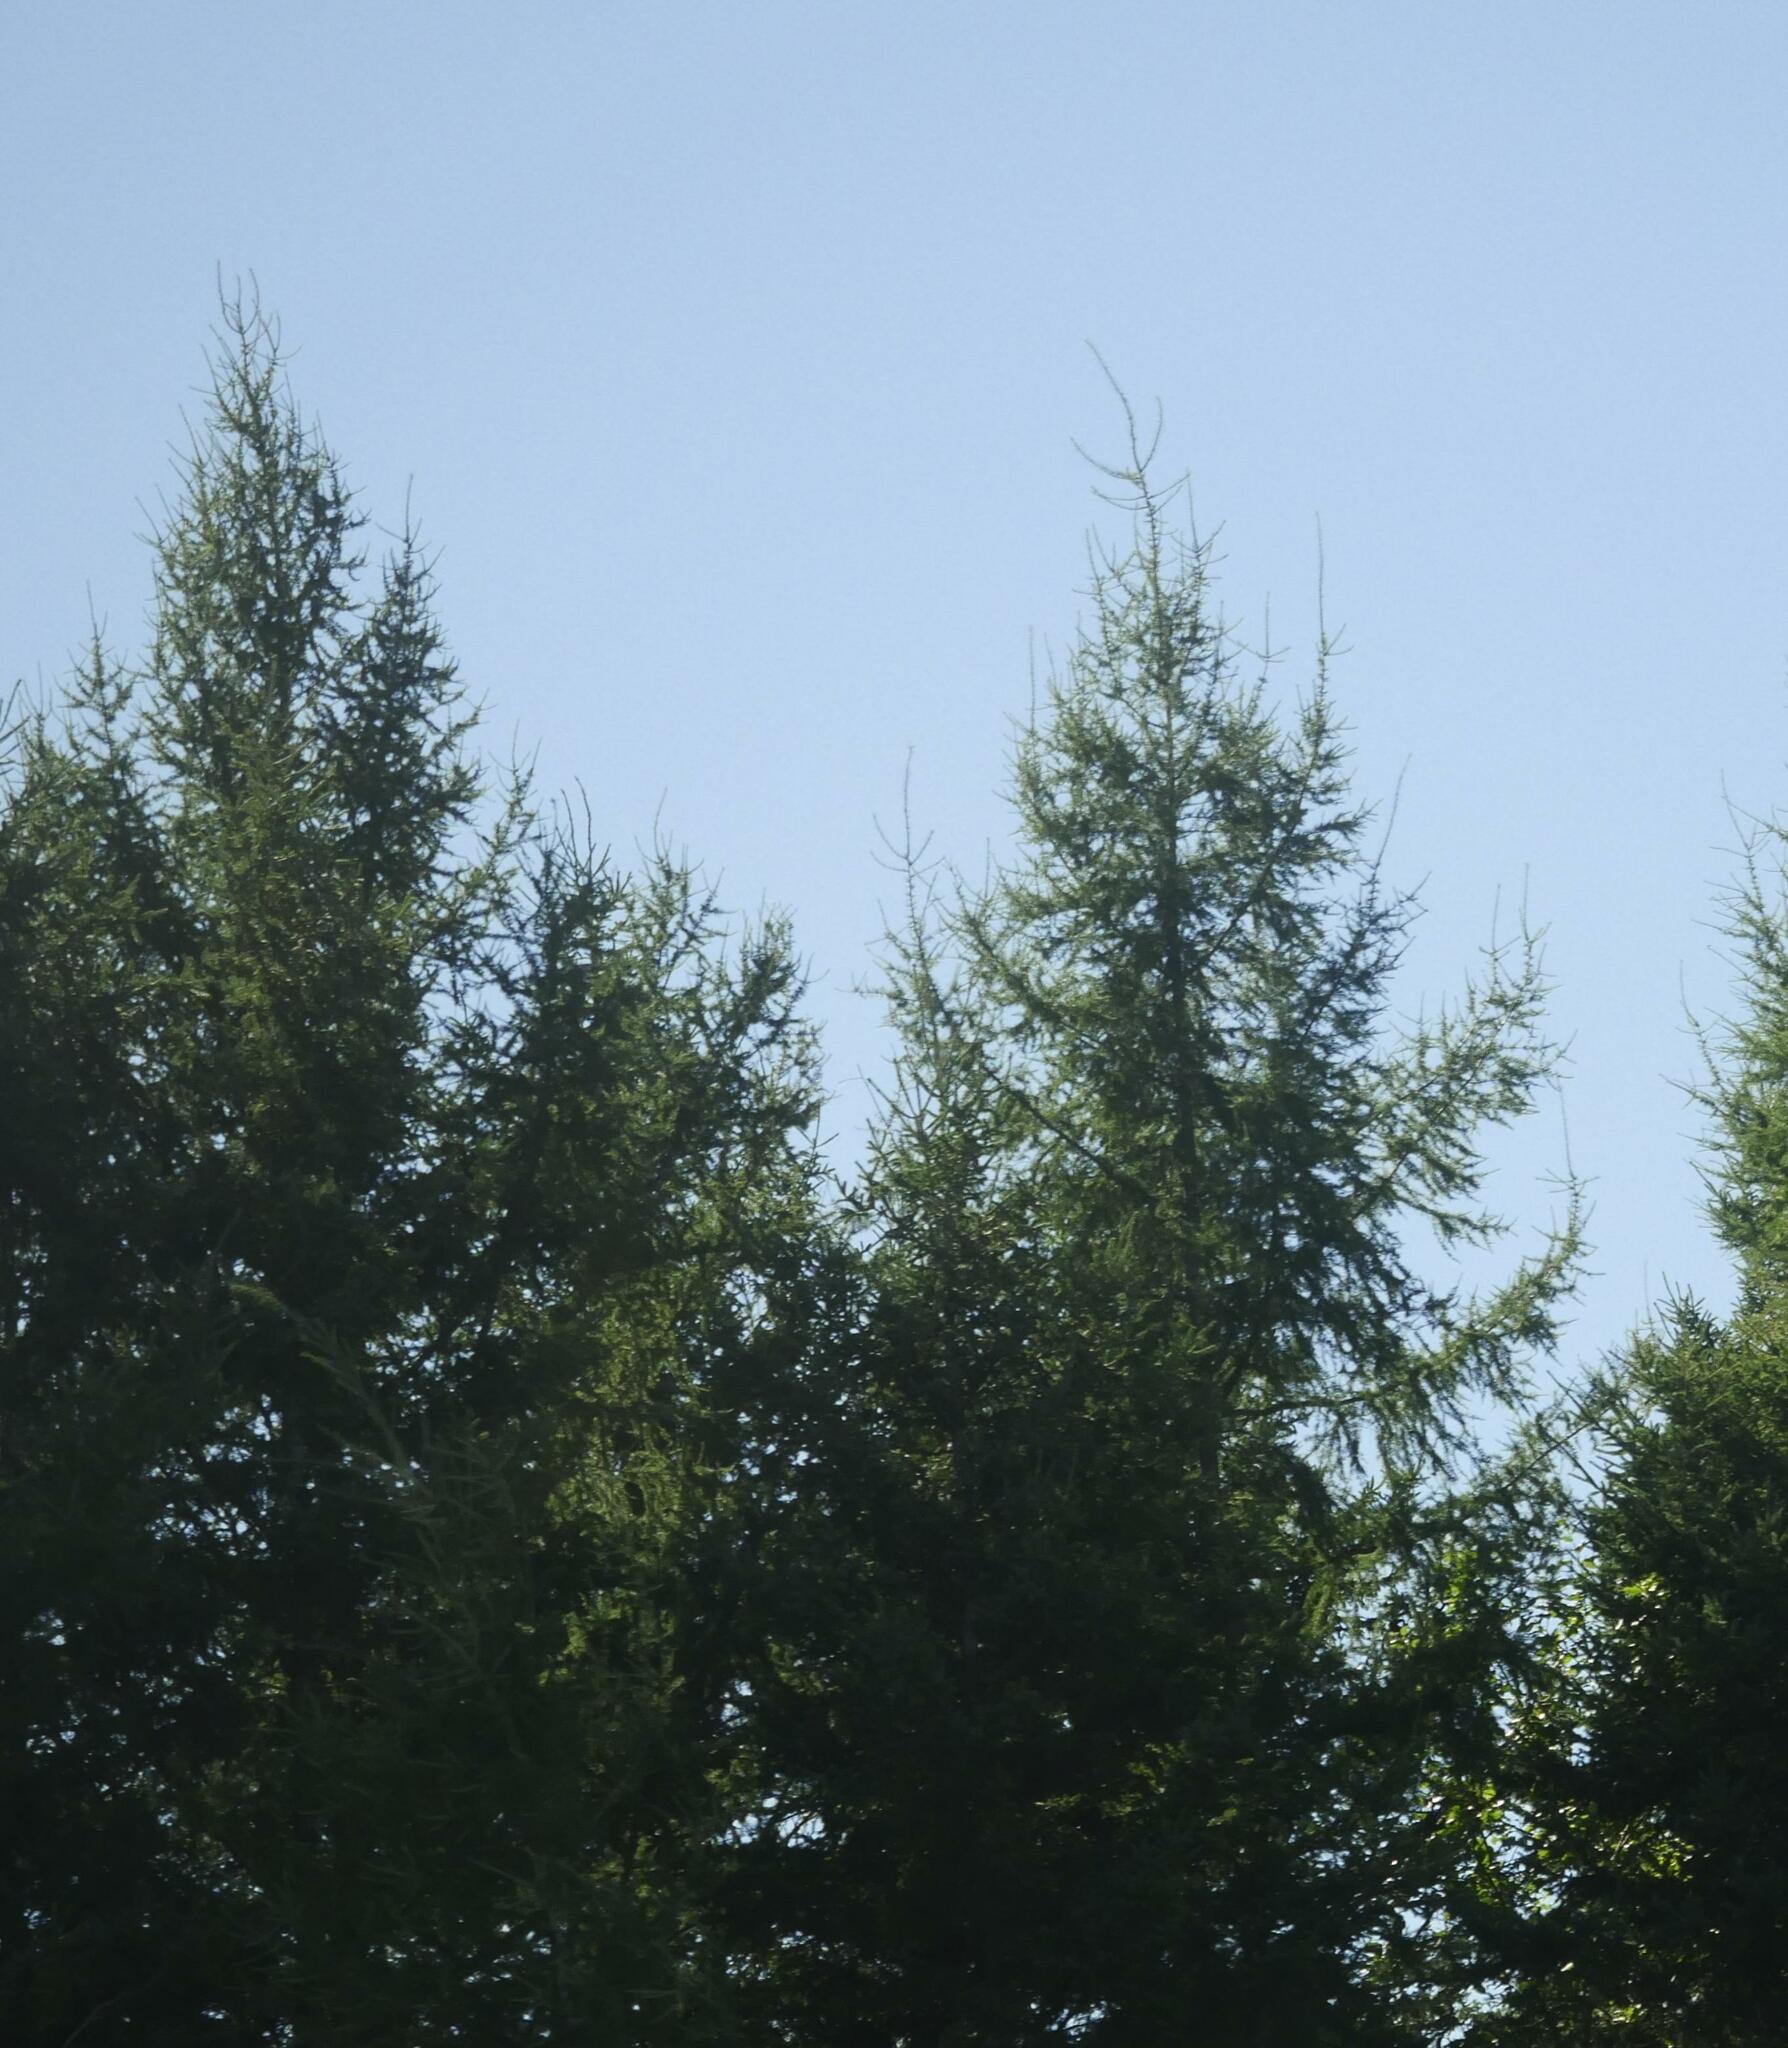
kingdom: Plantae
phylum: Tracheophyta
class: Pinopsida
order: Pinales
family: Pinaceae
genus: Larix
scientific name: Larix laricina
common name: American larch
